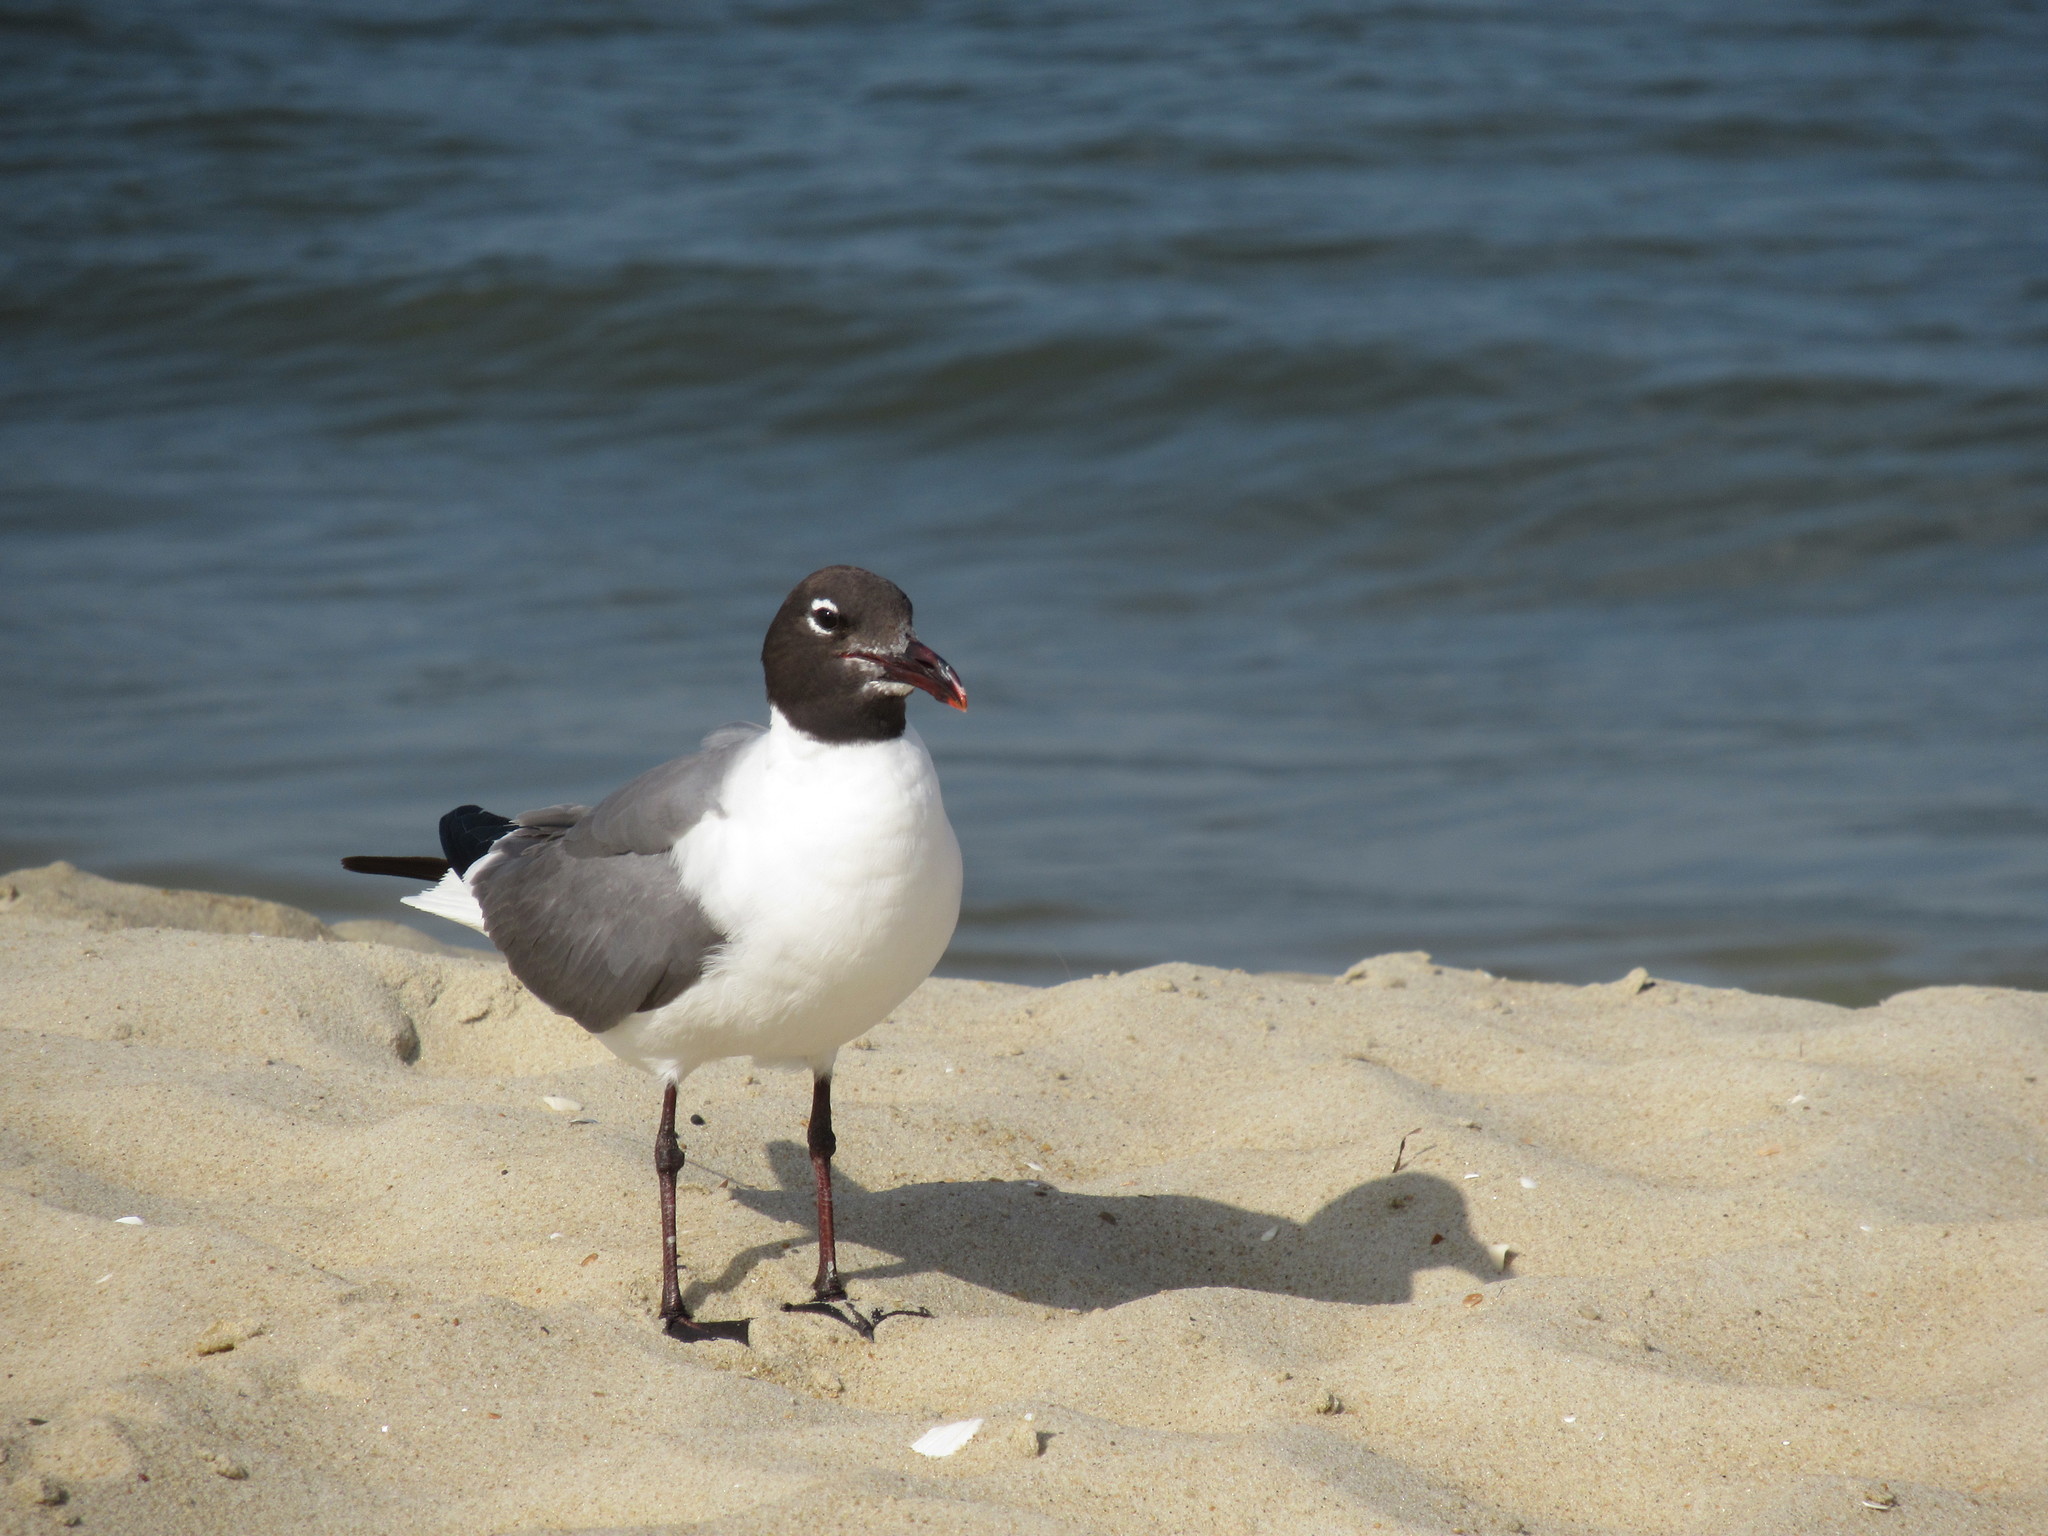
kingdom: Animalia
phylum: Chordata
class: Aves
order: Charadriiformes
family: Laridae
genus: Leucophaeus
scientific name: Leucophaeus atricilla
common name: Laughing gull
